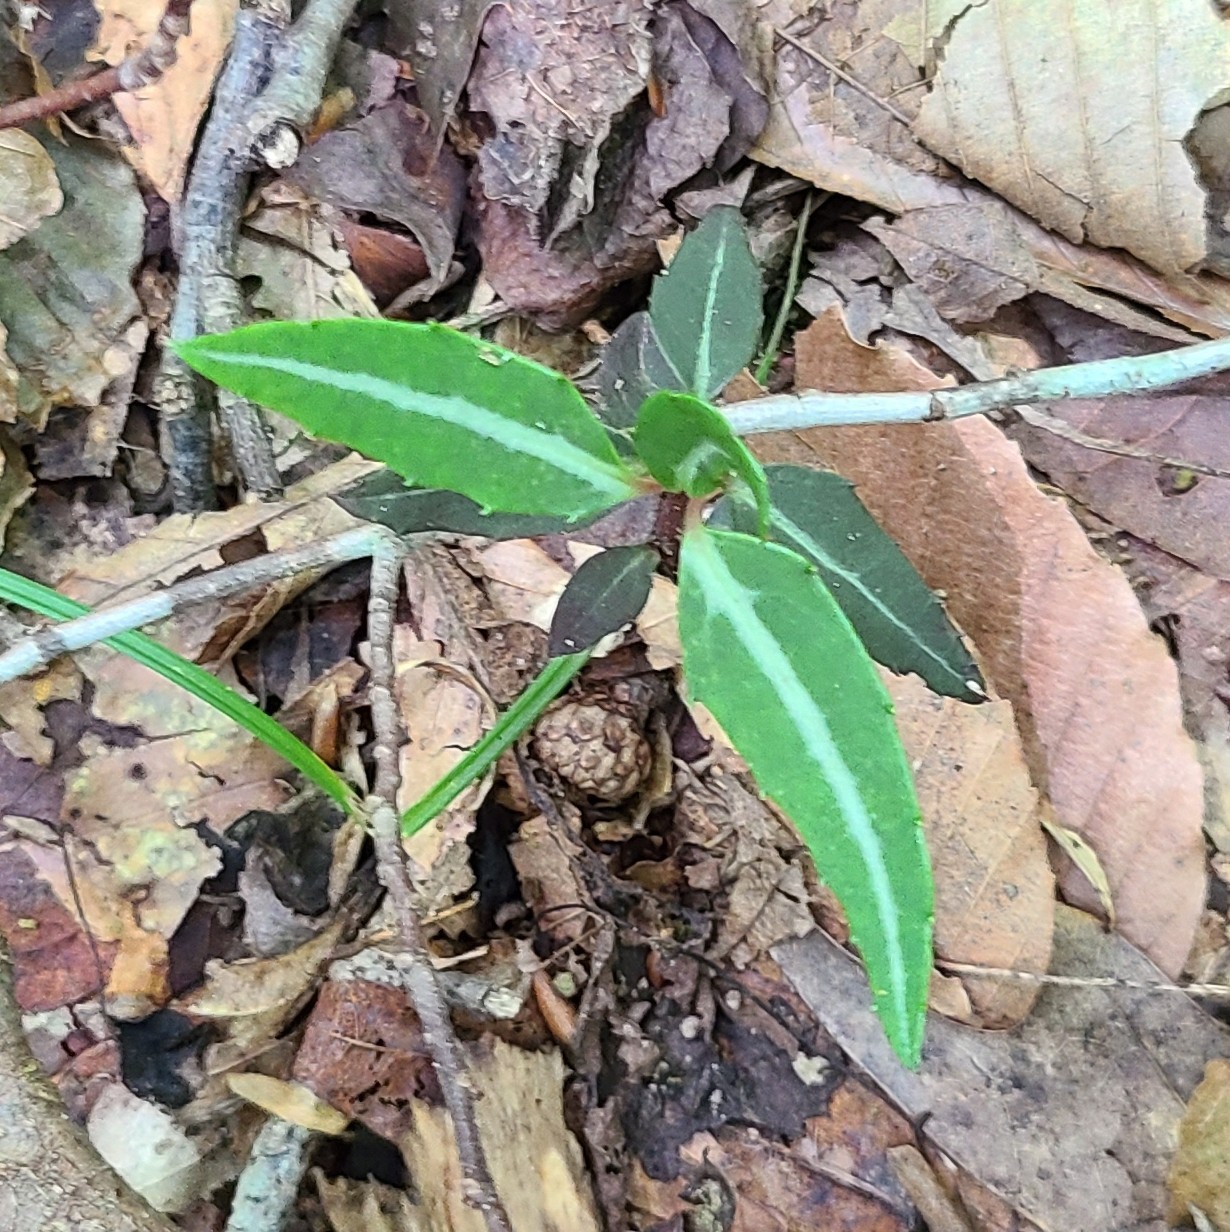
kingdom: Plantae
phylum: Tracheophyta
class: Magnoliopsida
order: Ericales
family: Ericaceae
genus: Chimaphila
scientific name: Chimaphila maculata
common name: Spotted pipsissewa
